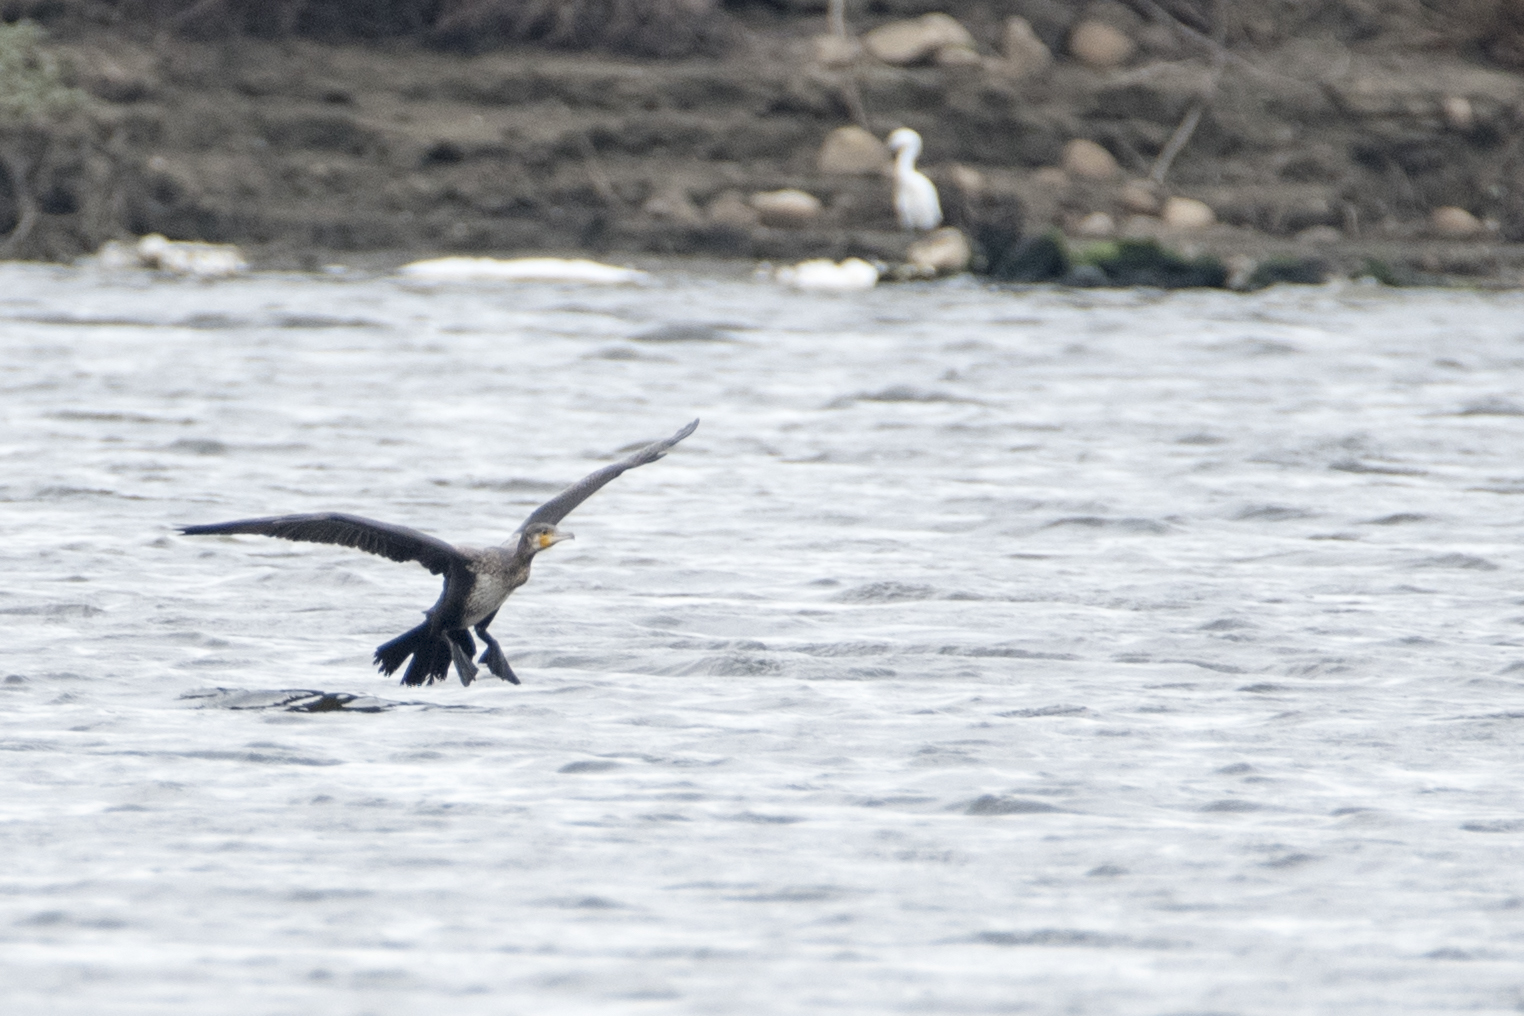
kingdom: Animalia
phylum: Chordata
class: Aves
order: Suliformes
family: Phalacrocoracidae
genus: Phalacrocorax
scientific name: Phalacrocorax carbo
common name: Great cormorant
